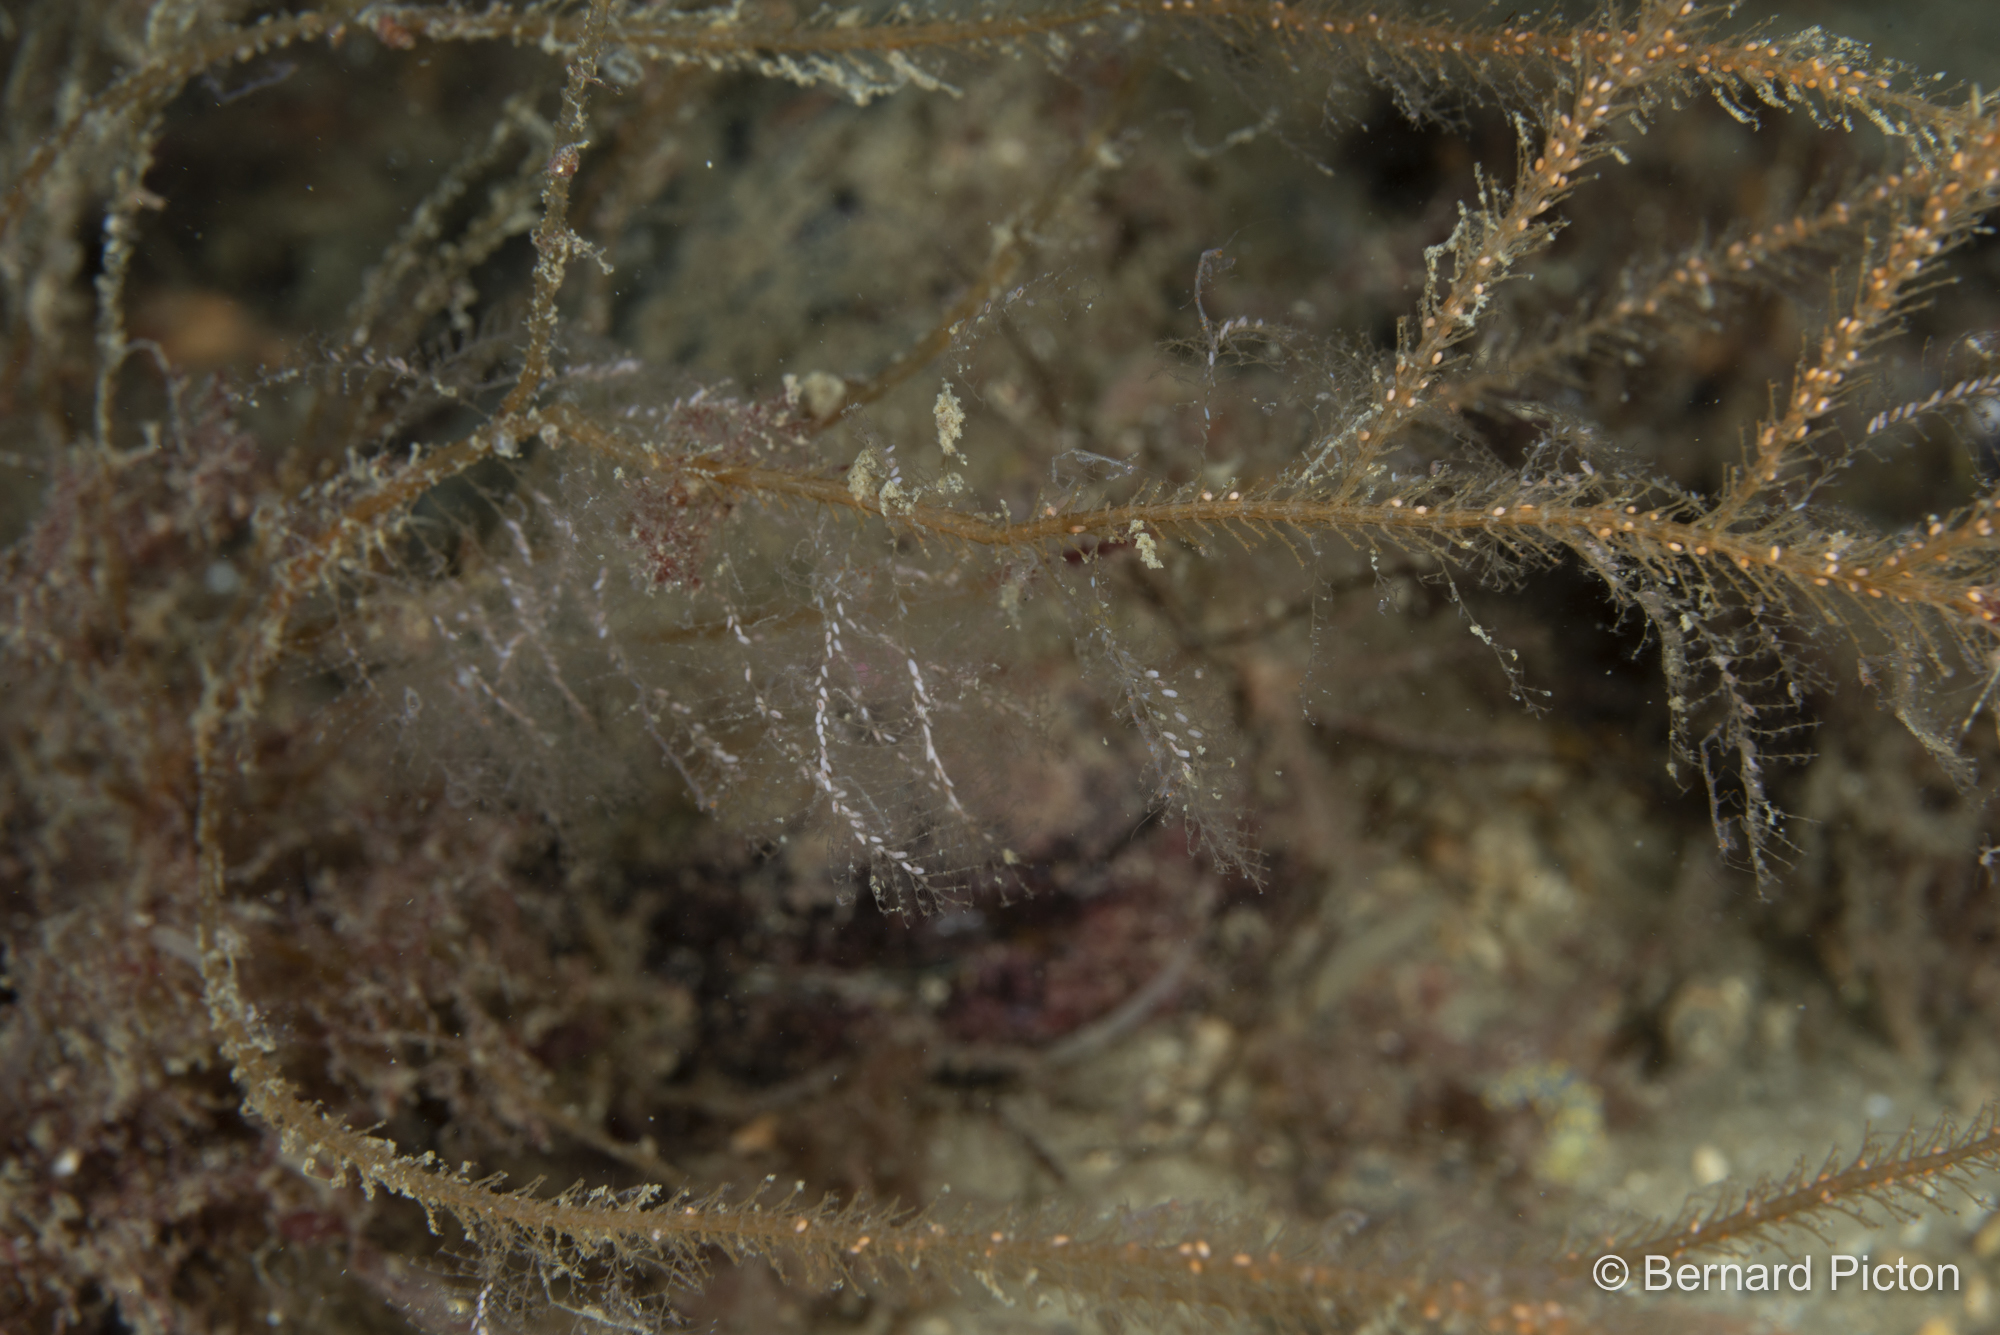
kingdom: Animalia
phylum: Cnidaria
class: Hydrozoa
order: Leptothecata
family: Plumulariidae
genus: Nemertesia
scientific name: Nemertesia ramosa
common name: Hydroid
